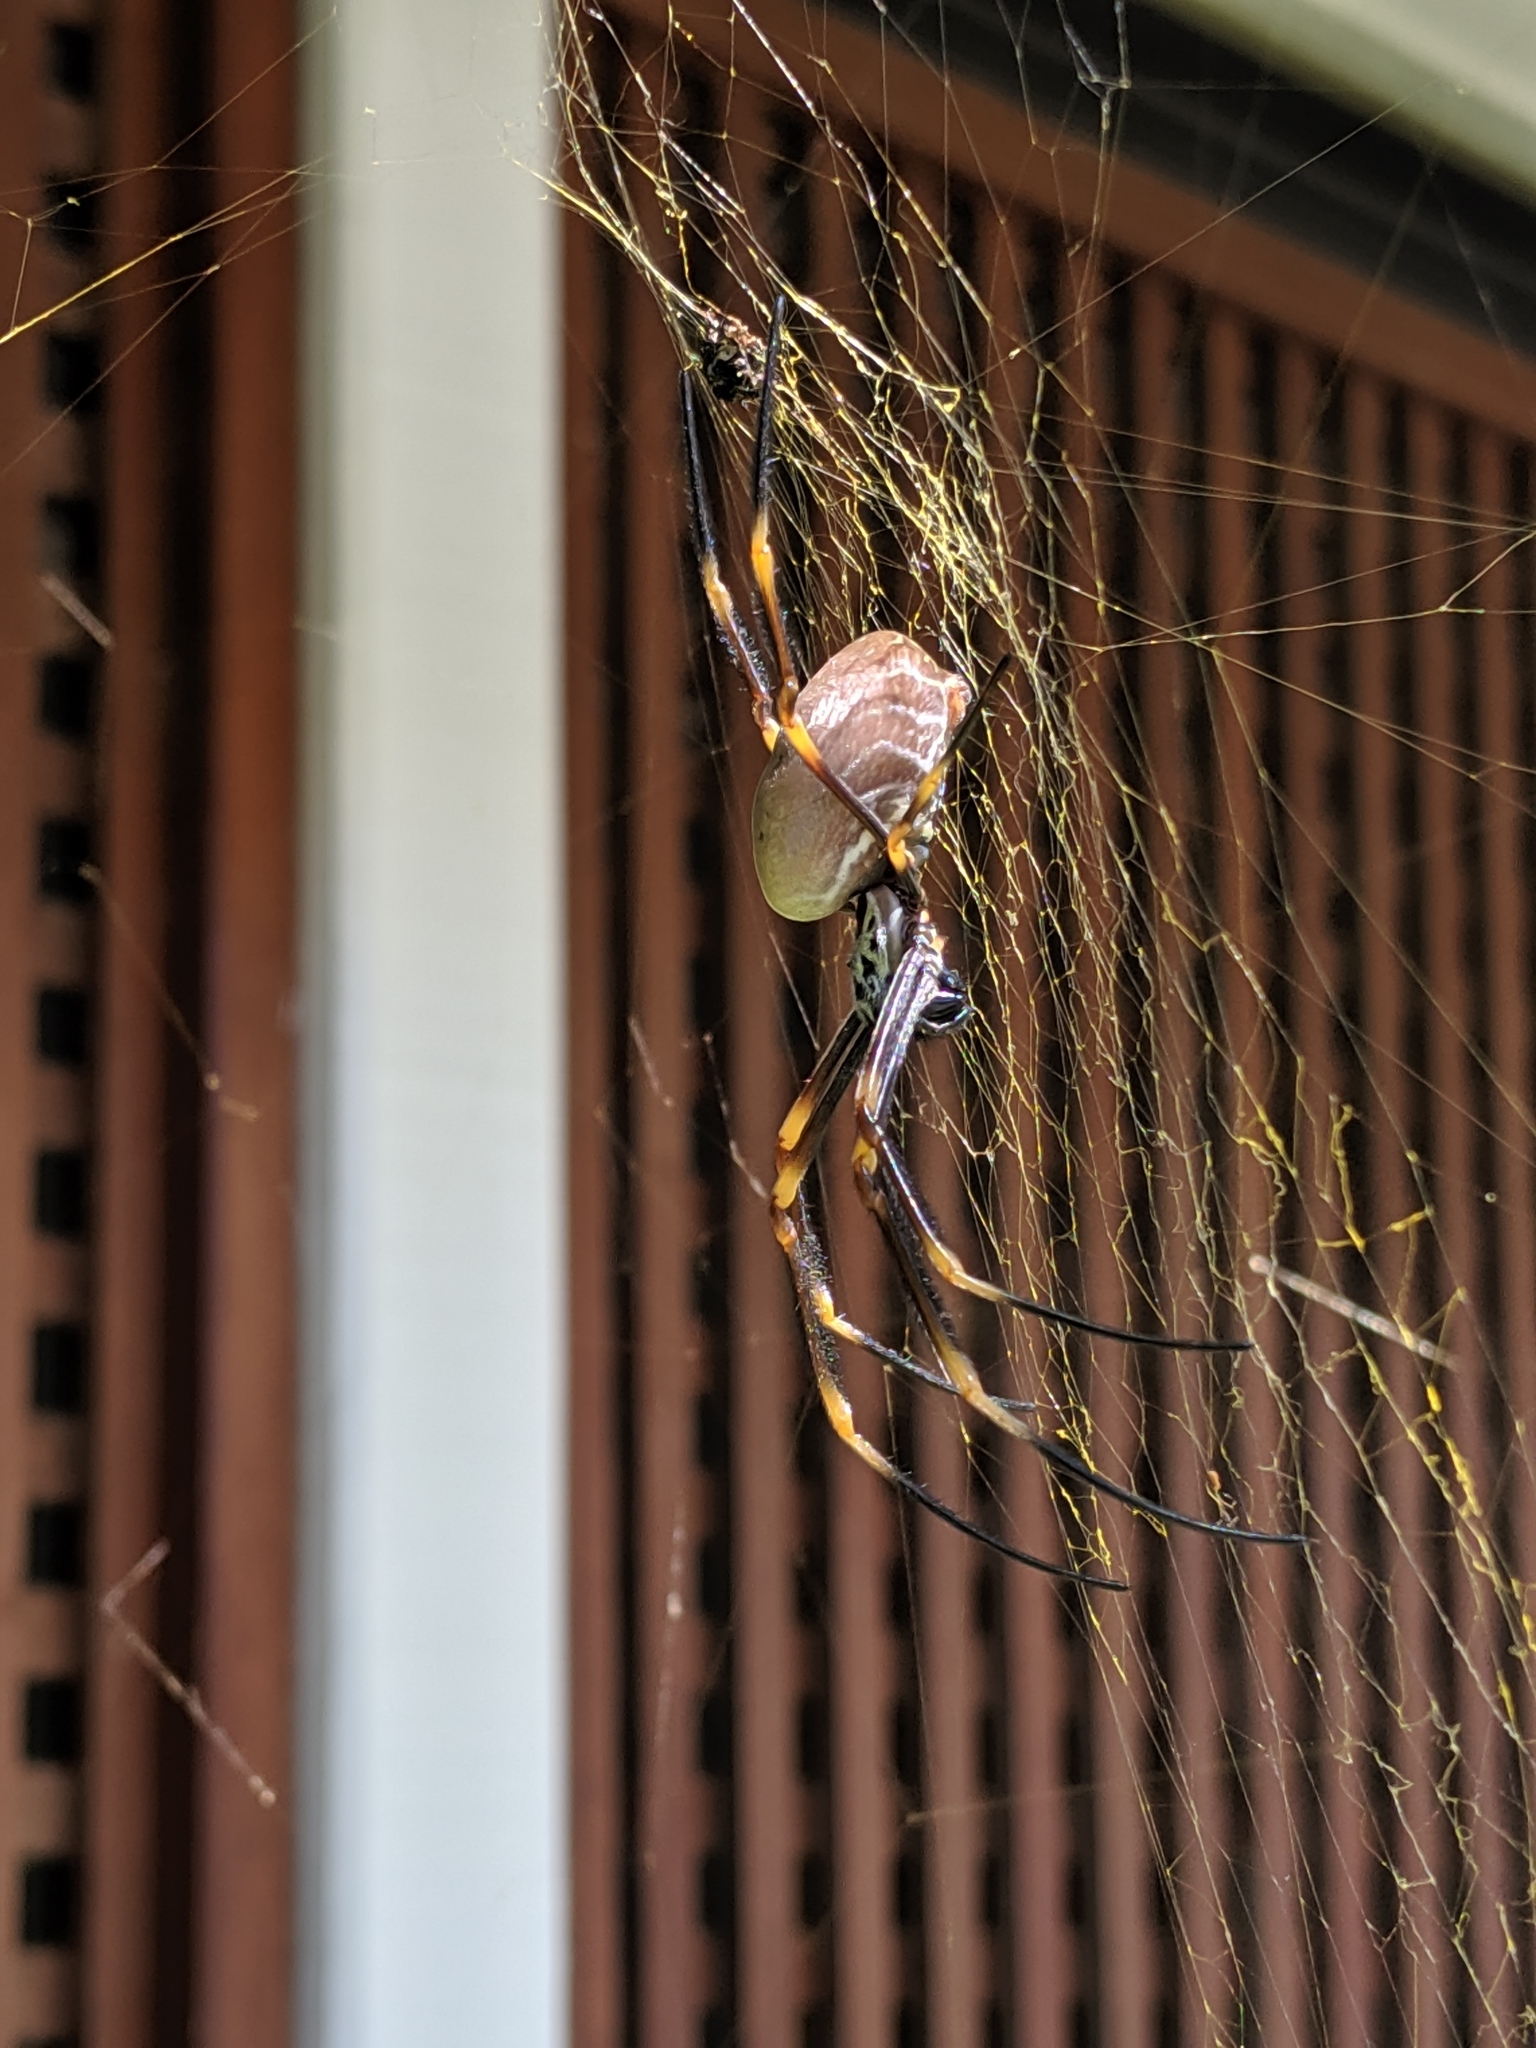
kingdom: Animalia
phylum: Arthropoda
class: Arachnida
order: Araneae
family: Araneidae
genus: Trichonephila
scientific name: Trichonephila plumipes
